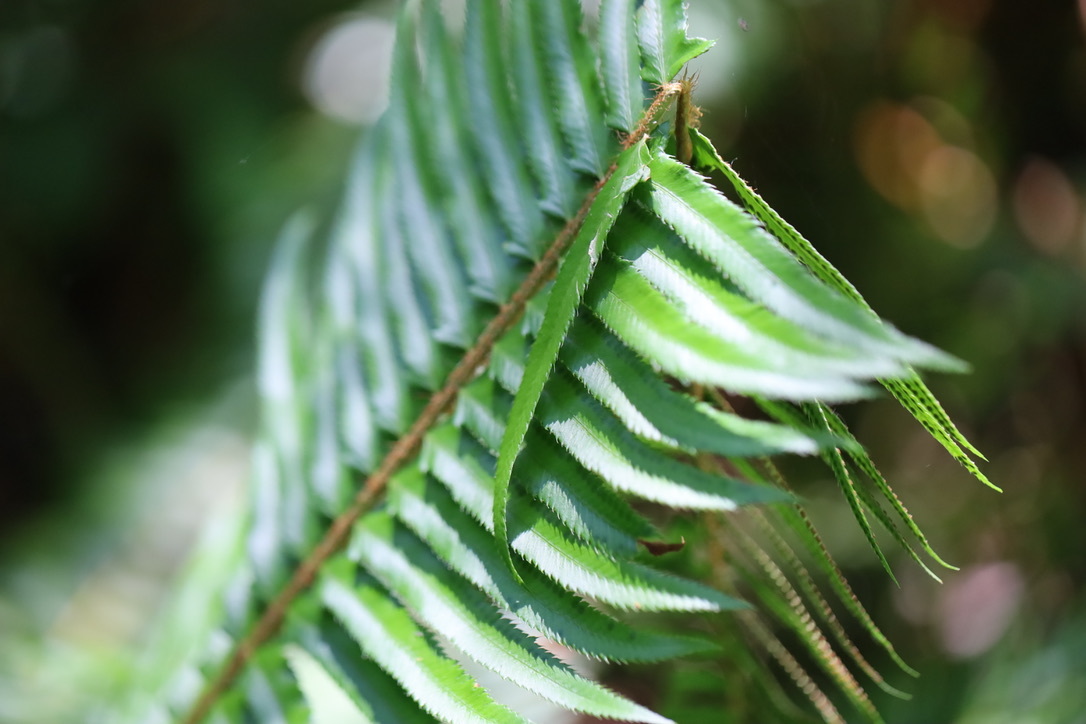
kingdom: Plantae
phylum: Tracheophyta
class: Polypodiopsida
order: Polypodiales
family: Dryopteridaceae
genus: Polystichum
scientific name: Polystichum munitum
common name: Western sword-fern
